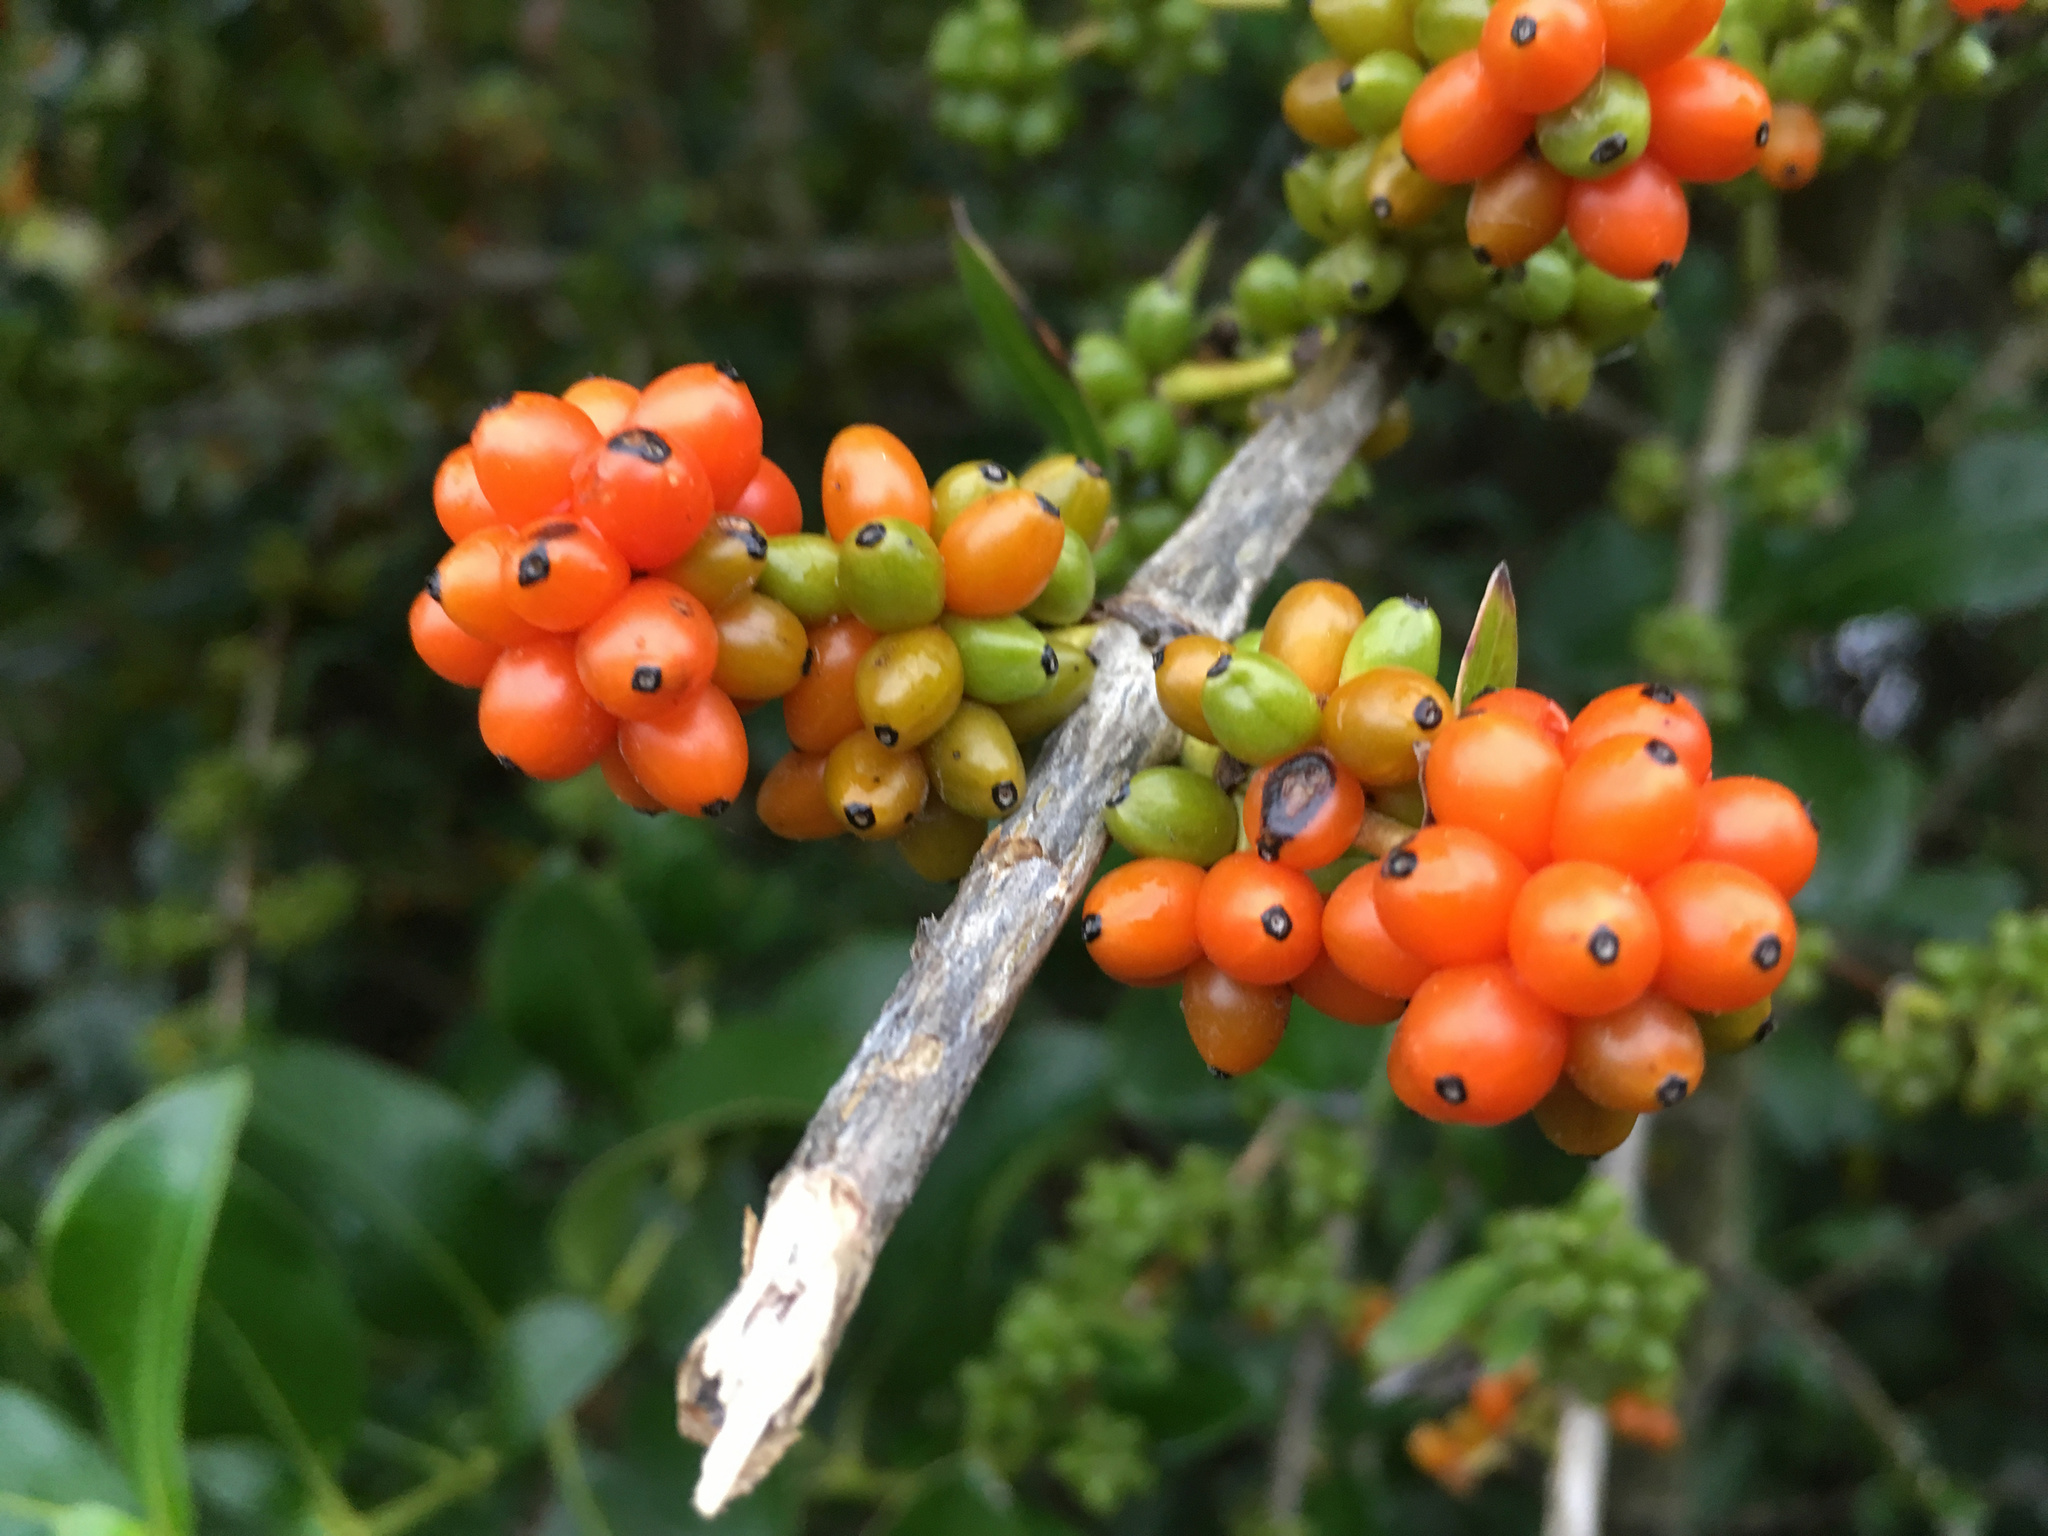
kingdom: Plantae
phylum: Tracheophyta
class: Magnoliopsida
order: Gentianales
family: Rubiaceae
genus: Coprosma
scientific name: Coprosma robusta
